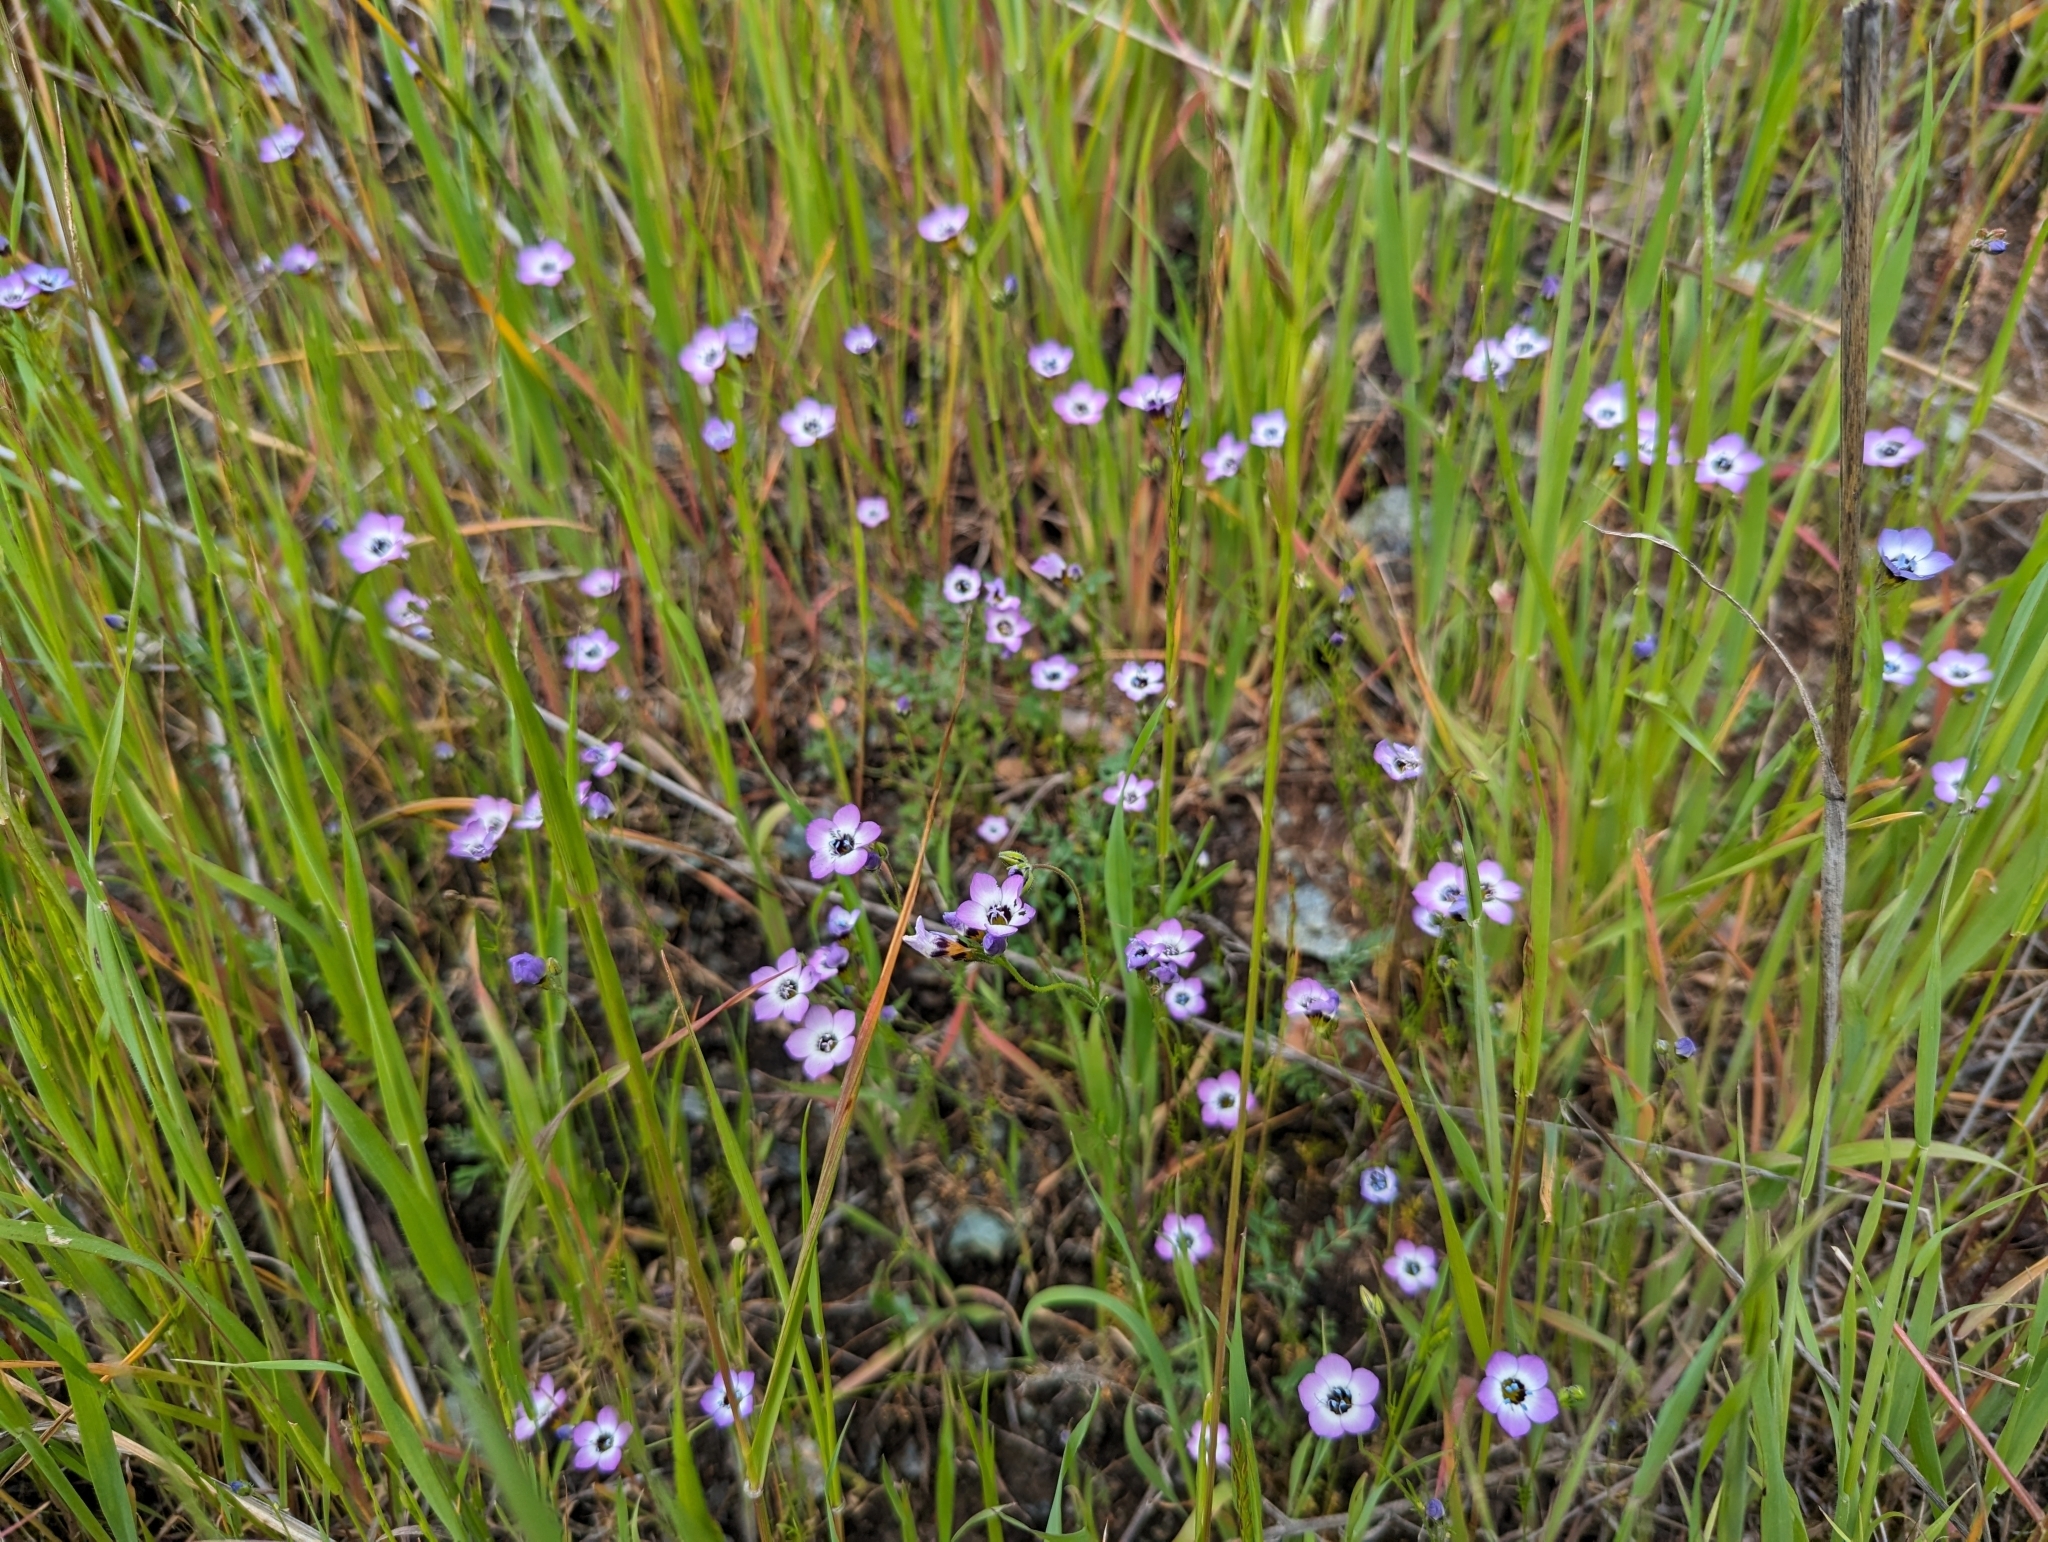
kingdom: Plantae
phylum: Tracheophyta
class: Magnoliopsida
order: Ericales
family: Polemoniaceae
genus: Gilia
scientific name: Gilia tricolor
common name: Bird's-eyes
